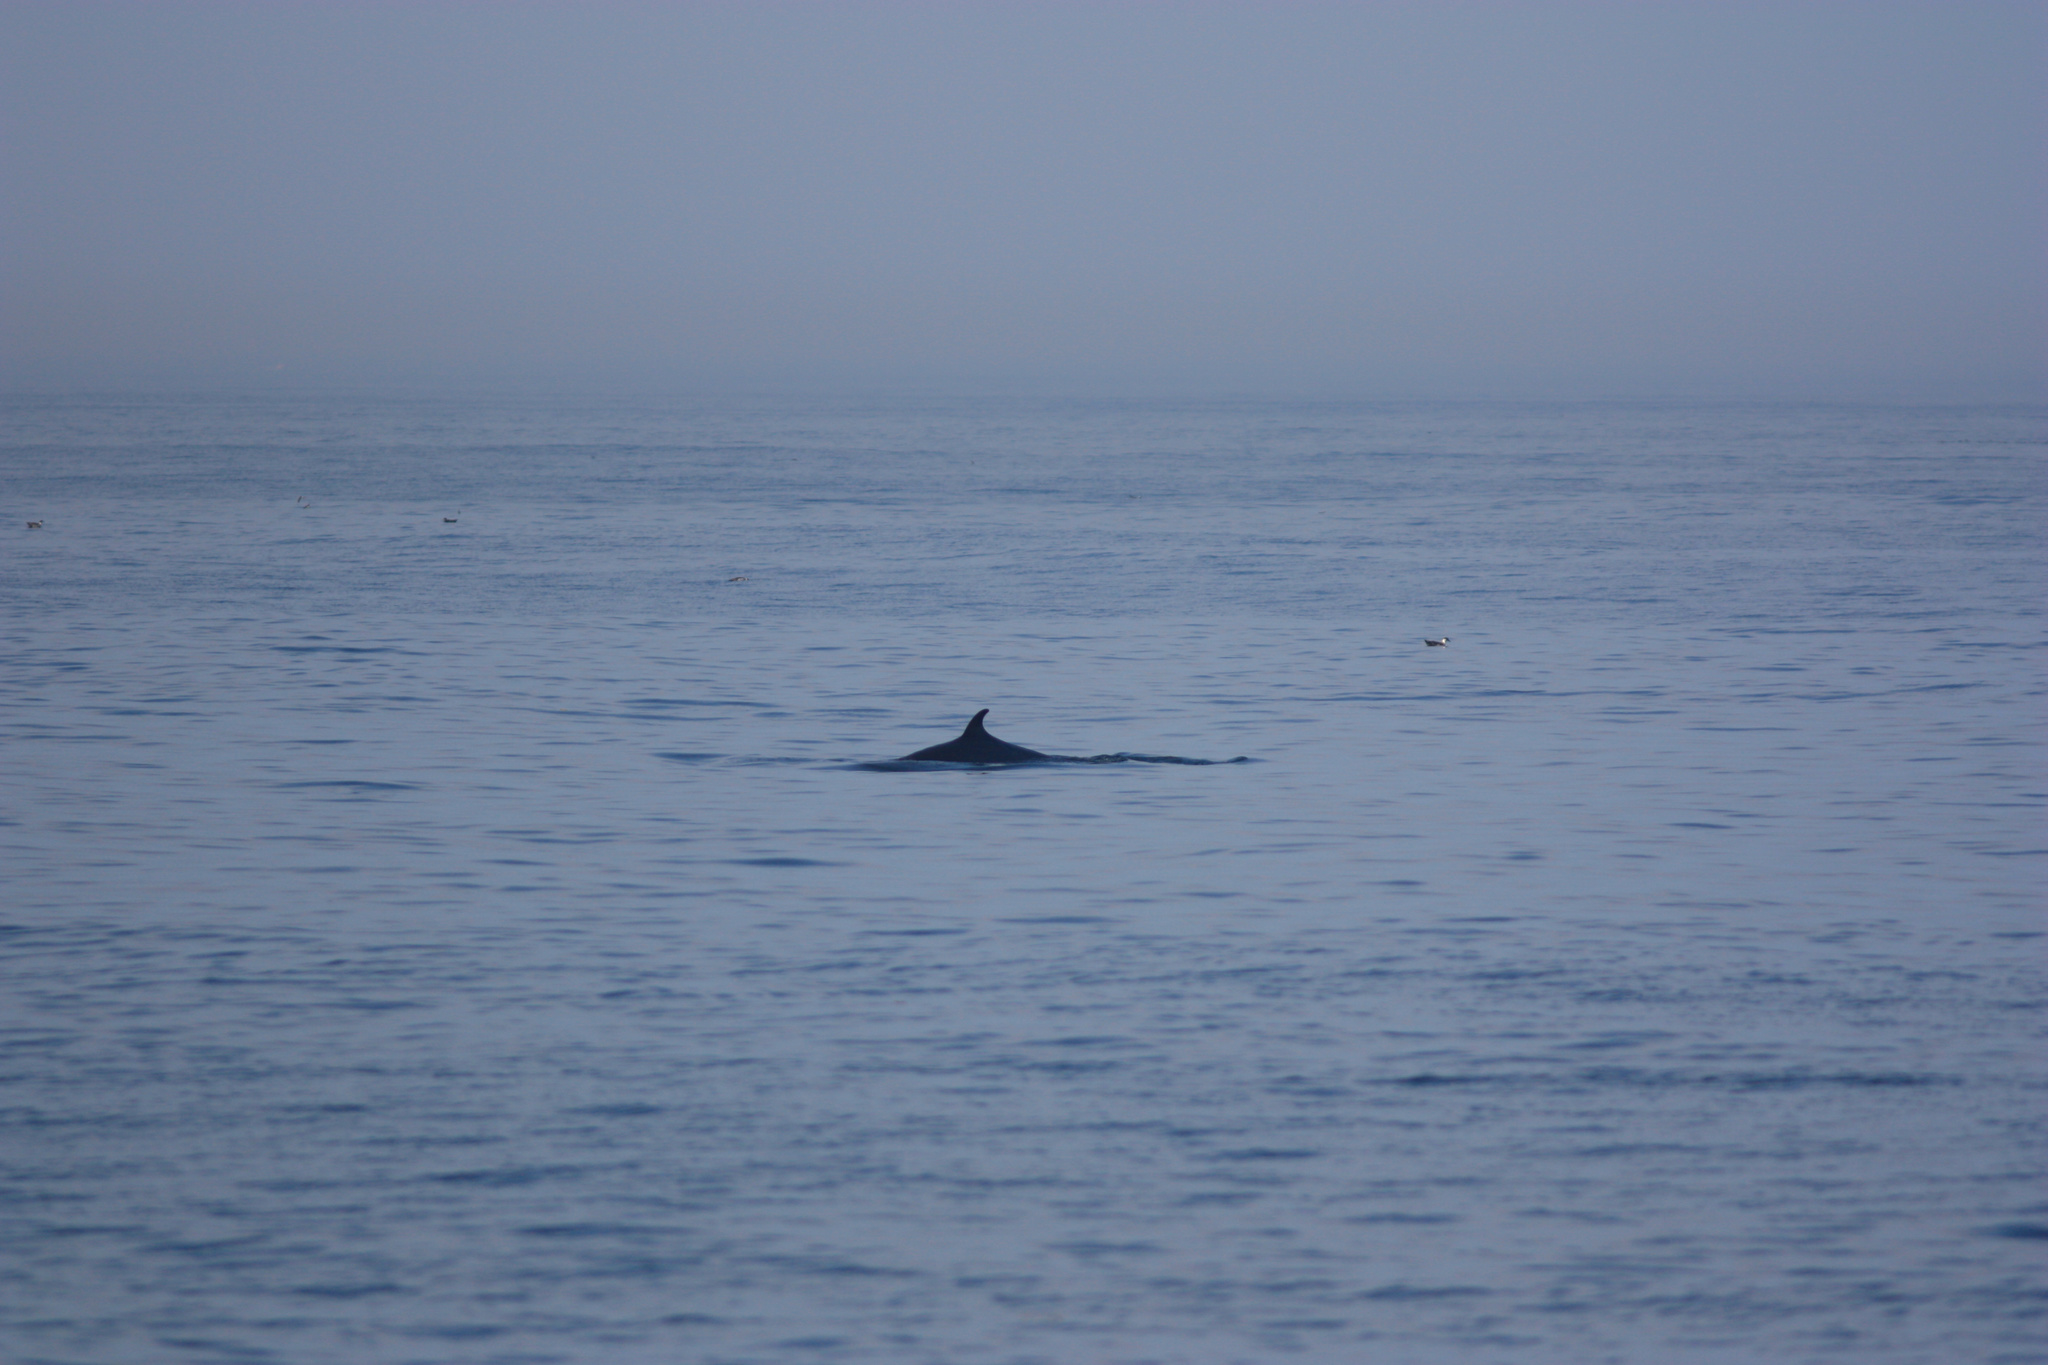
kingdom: Animalia
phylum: Chordata
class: Mammalia
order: Cetacea
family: Balaenopteridae
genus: Balaenoptera
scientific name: Balaenoptera acutorostrata
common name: Common minke whale
